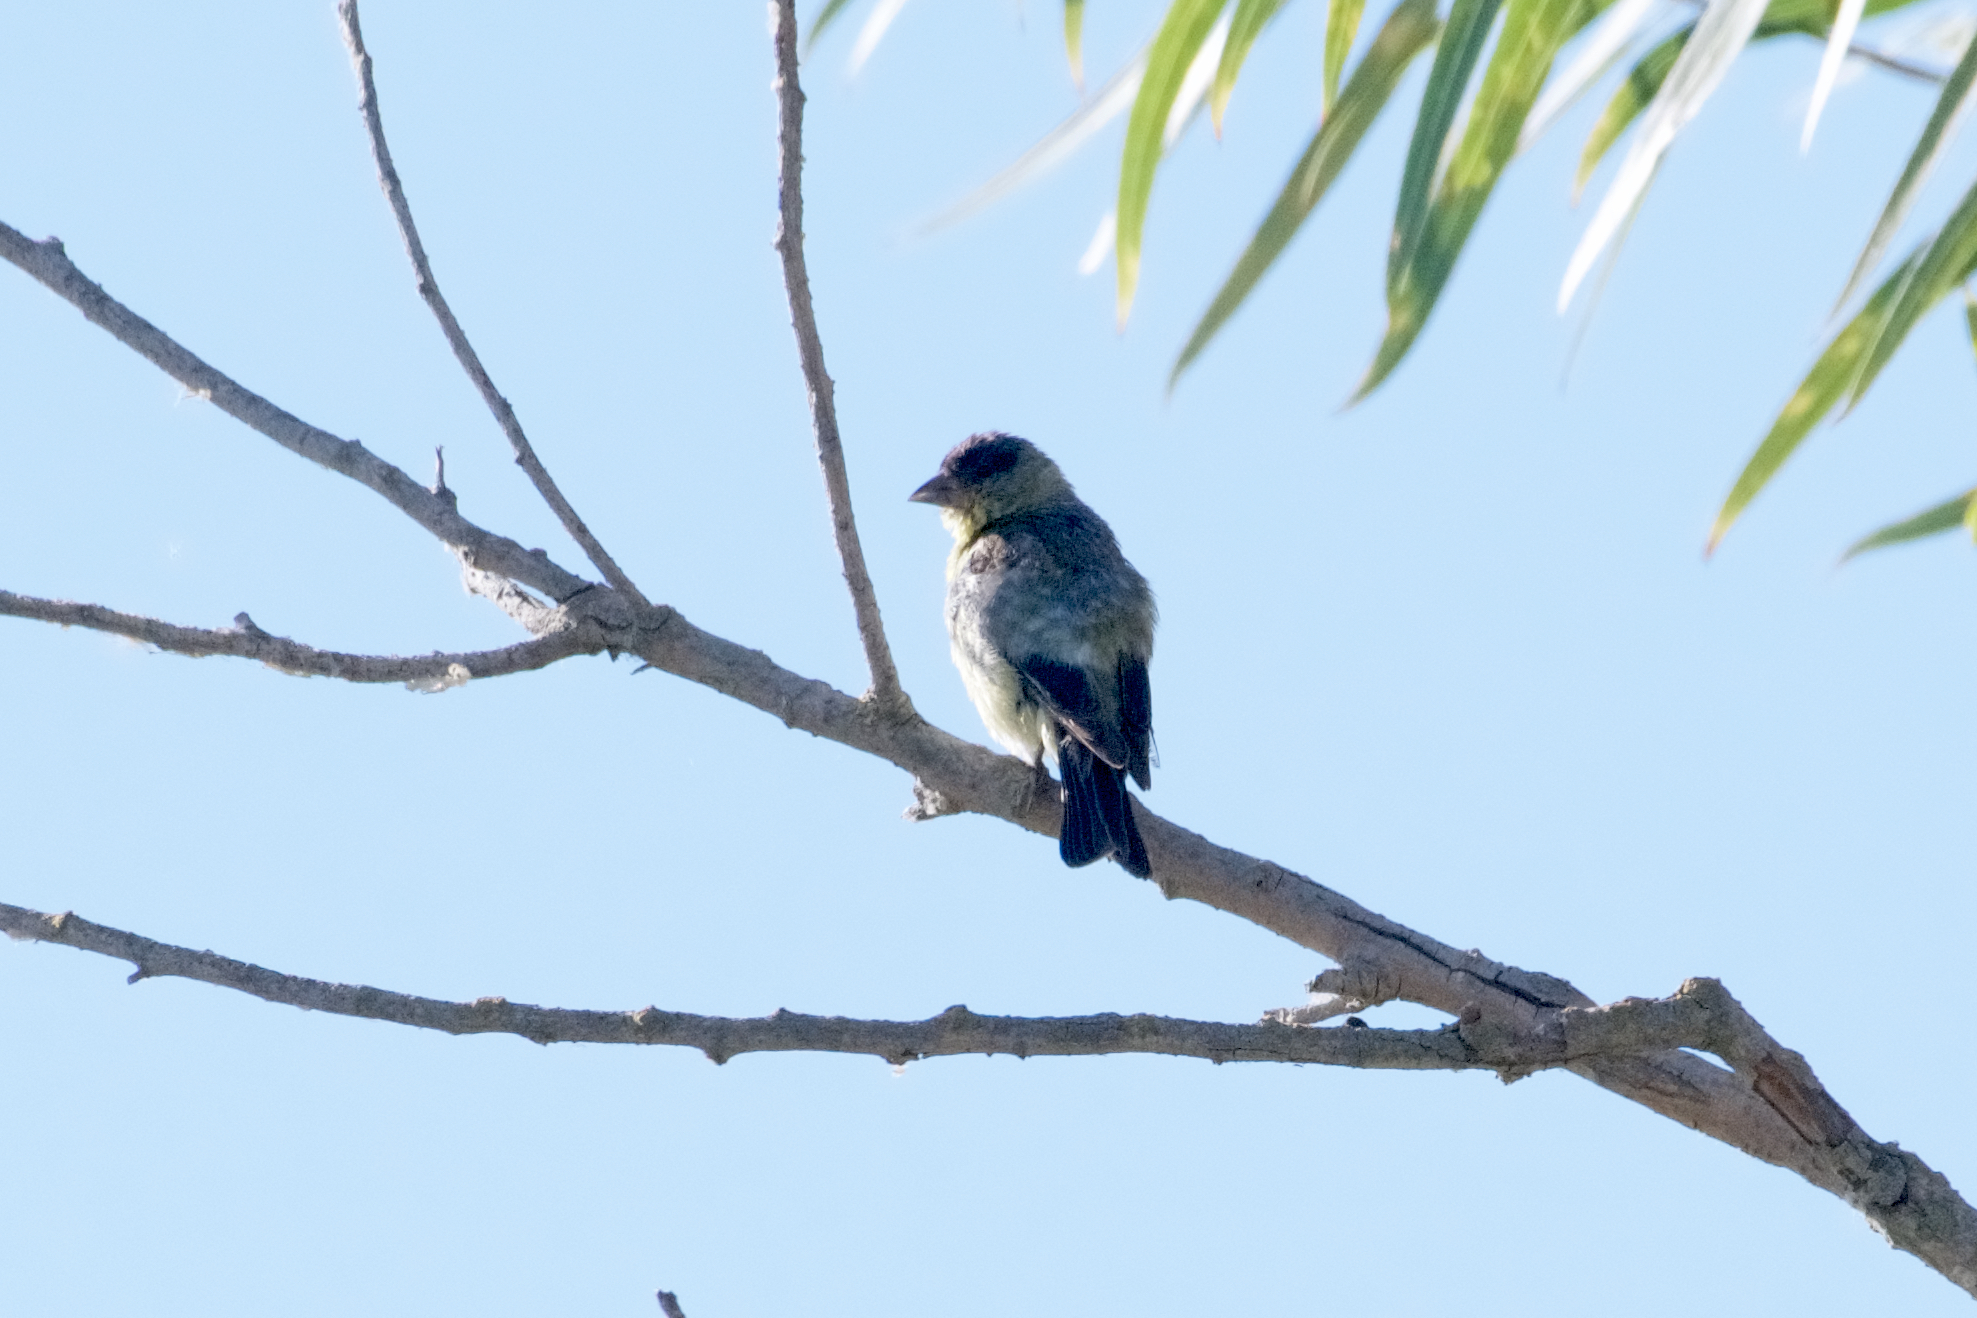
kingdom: Animalia
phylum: Chordata
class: Aves
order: Passeriformes
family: Fringillidae
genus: Spinus
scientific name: Spinus psaltria
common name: Lesser goldfinch
